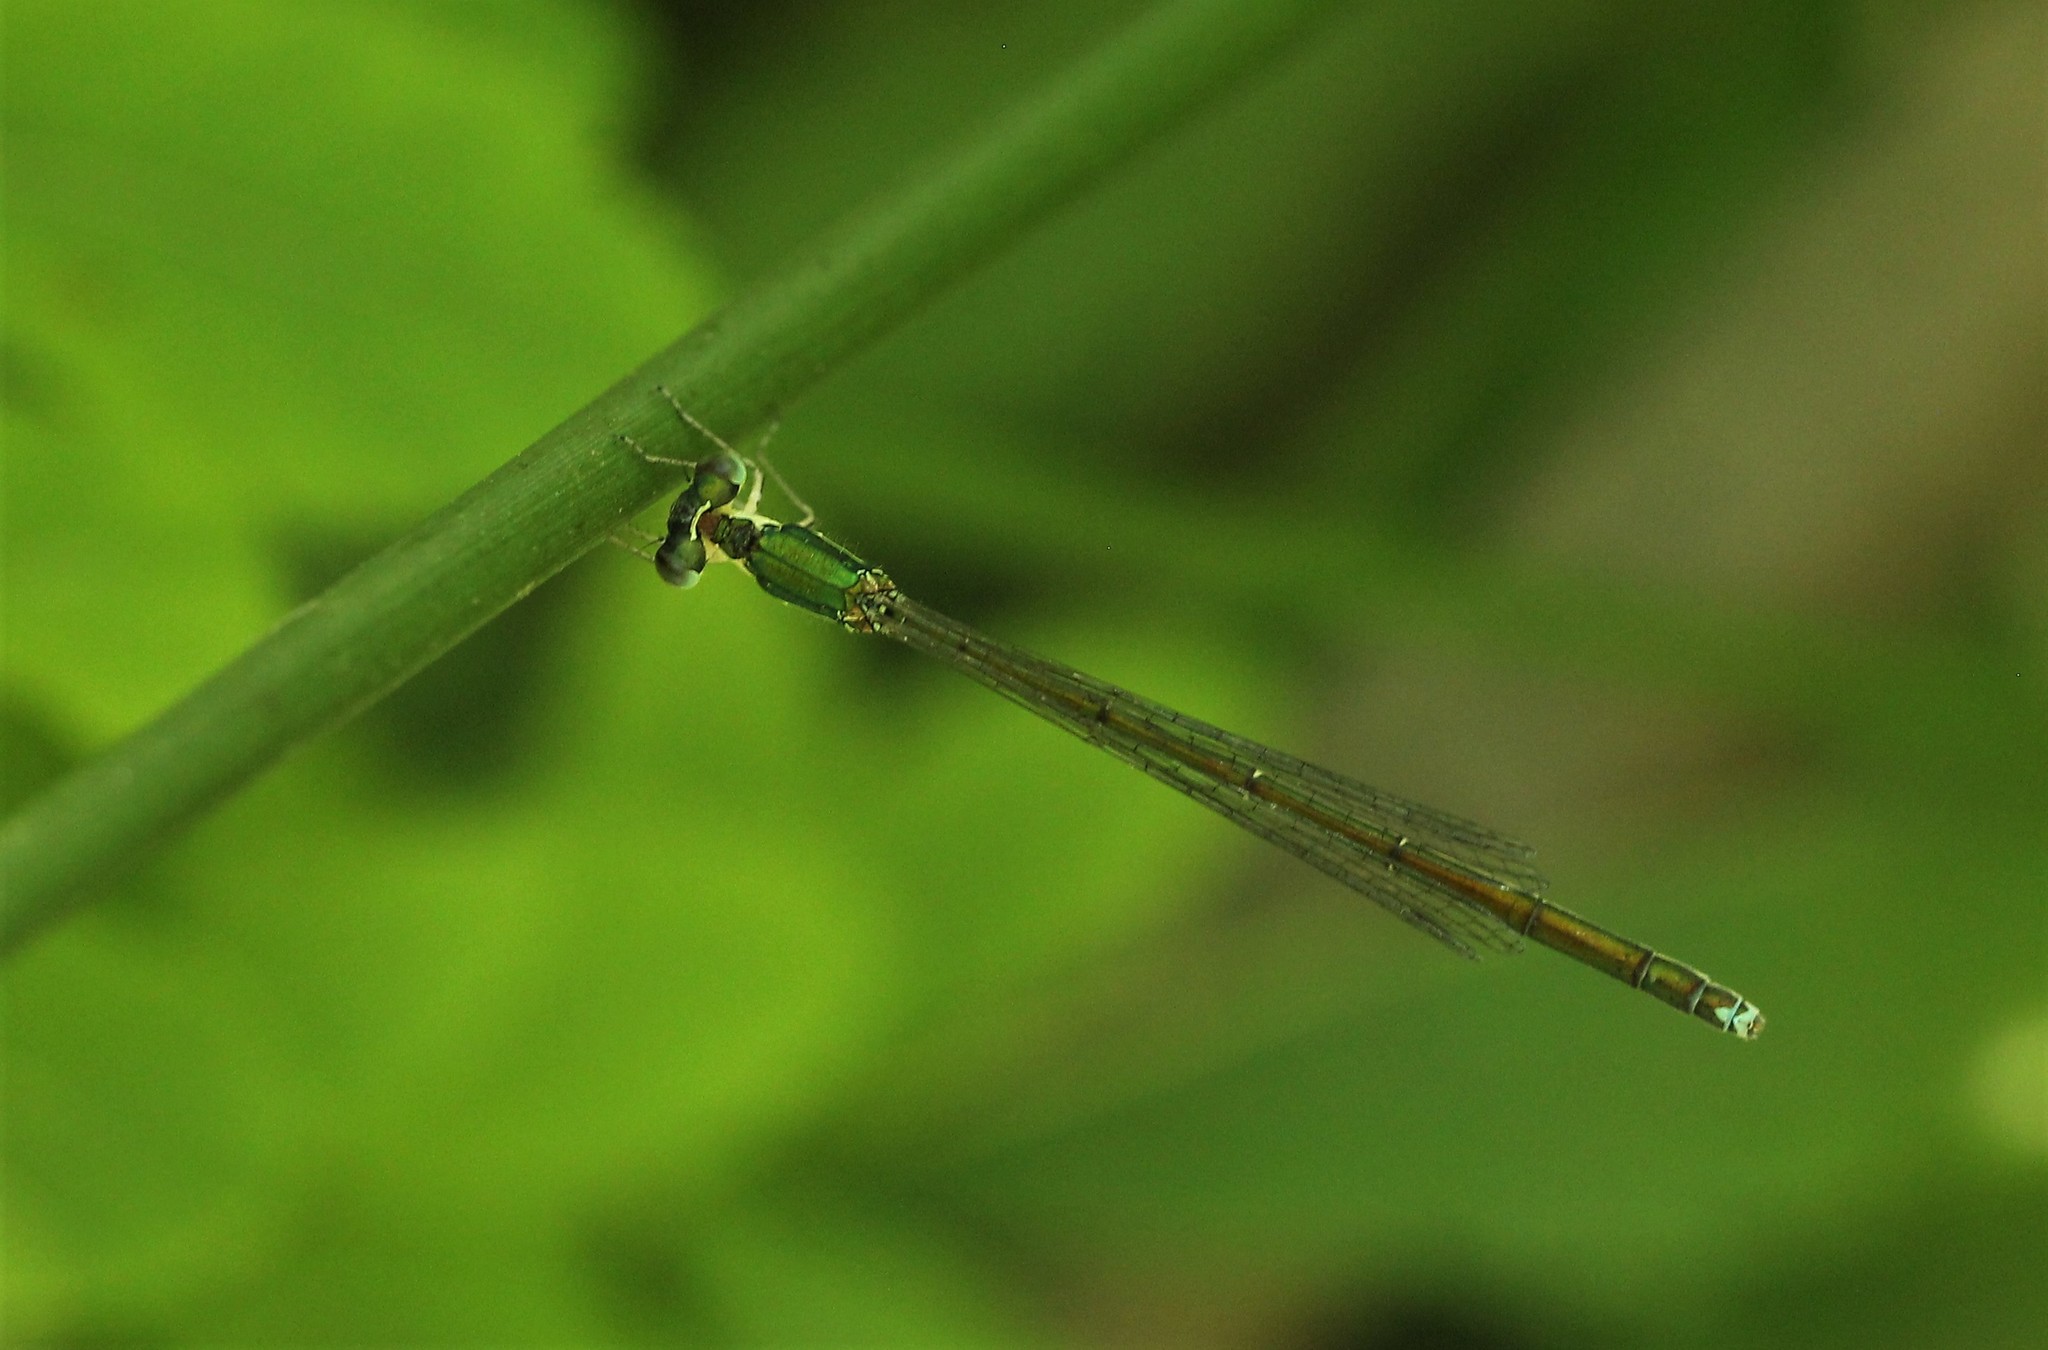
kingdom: Animalia
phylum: Arthropoda
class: Insecta
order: Odonata
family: Coenagrionidae
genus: Nehalennia
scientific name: Nehalennia irene
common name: Sedge sprite
